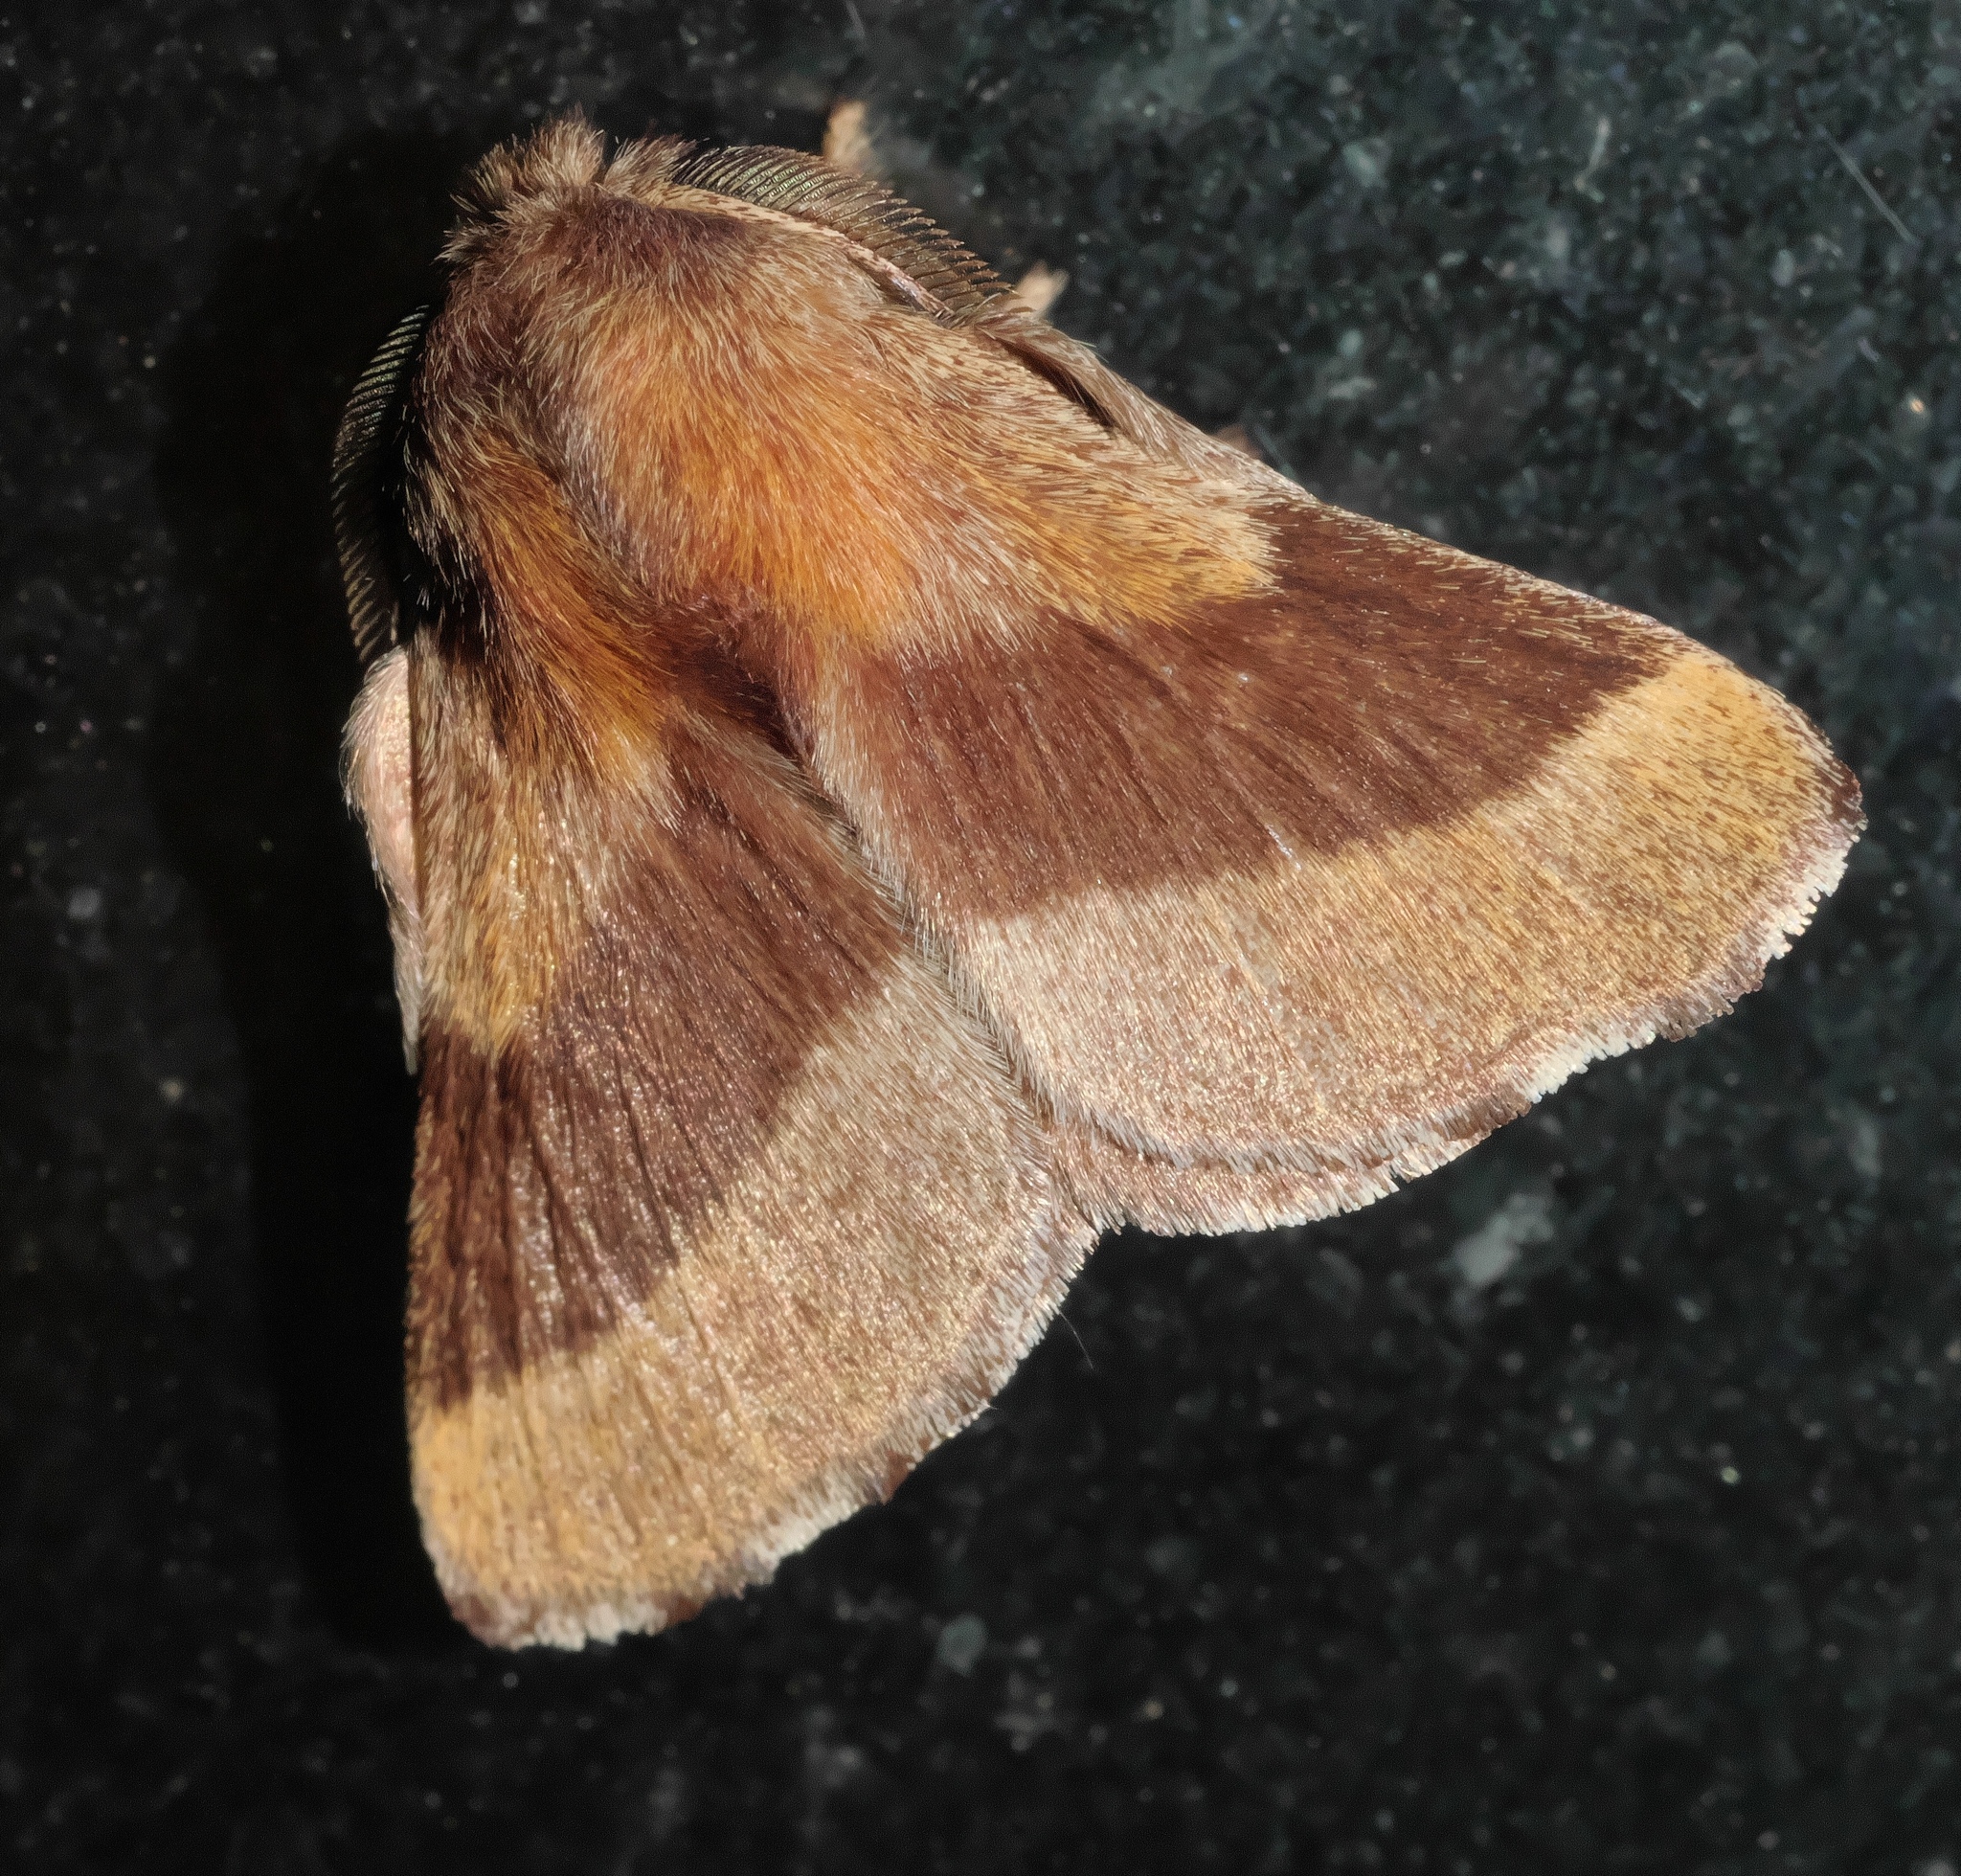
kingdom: Animalia
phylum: Arthropoda
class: Insecta
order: Lepidoptera
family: Lasiocampidae
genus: Malacosoma
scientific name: Malacosoma disstria
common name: Forest tent caterpillar
